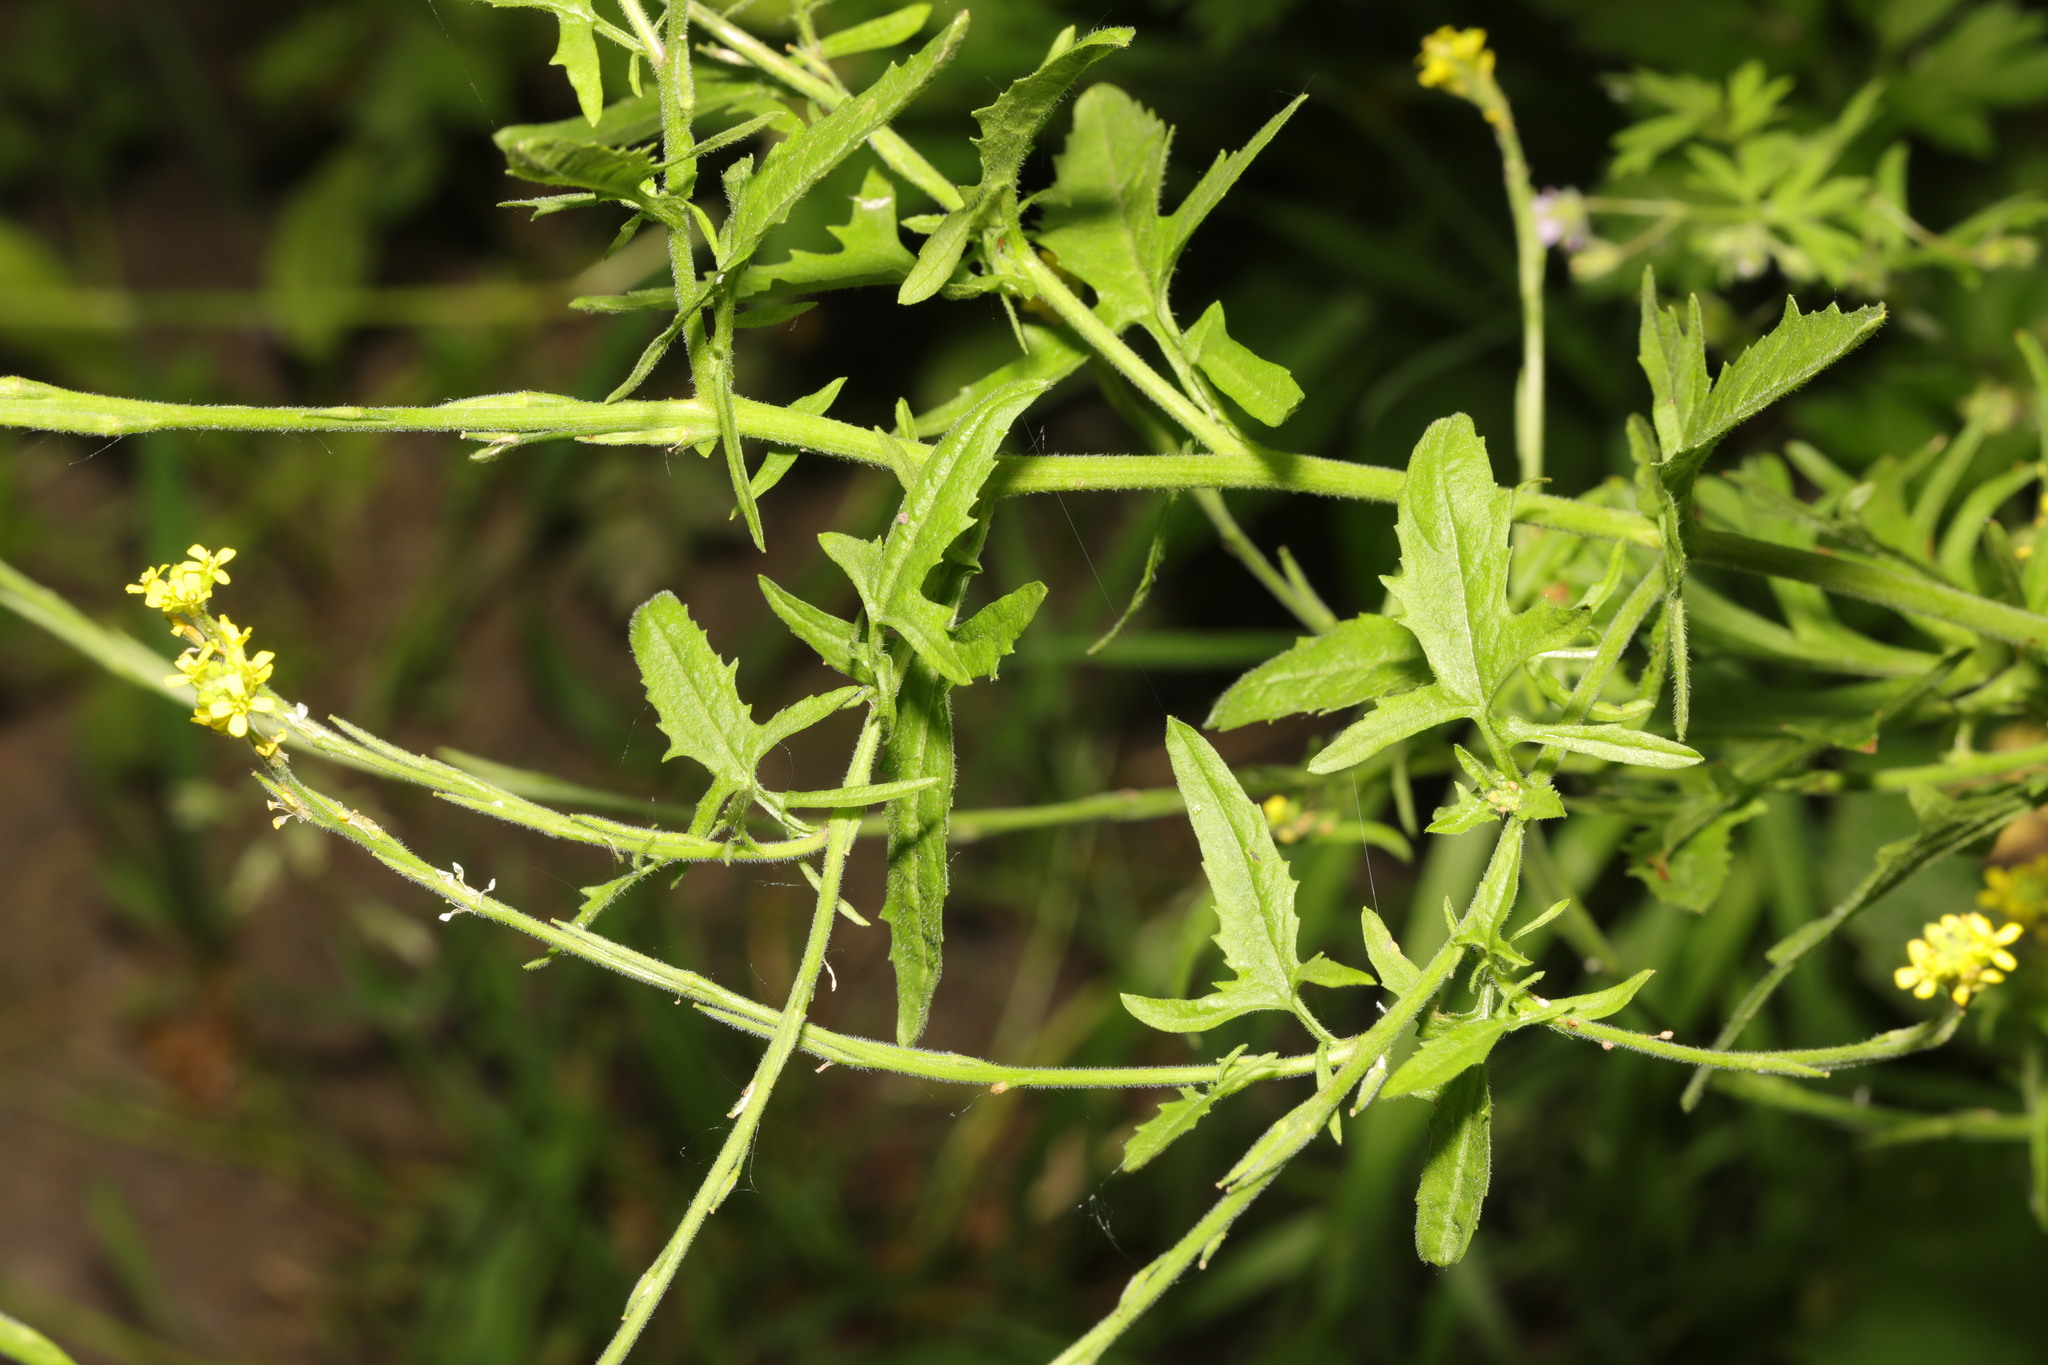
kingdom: Plantae
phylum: Tracheophyta
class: Magnoliopsida
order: Brassicales
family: Brassicaceae
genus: Sisymbrium
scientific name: Sisymbrium officinale
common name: Hedge mustard
